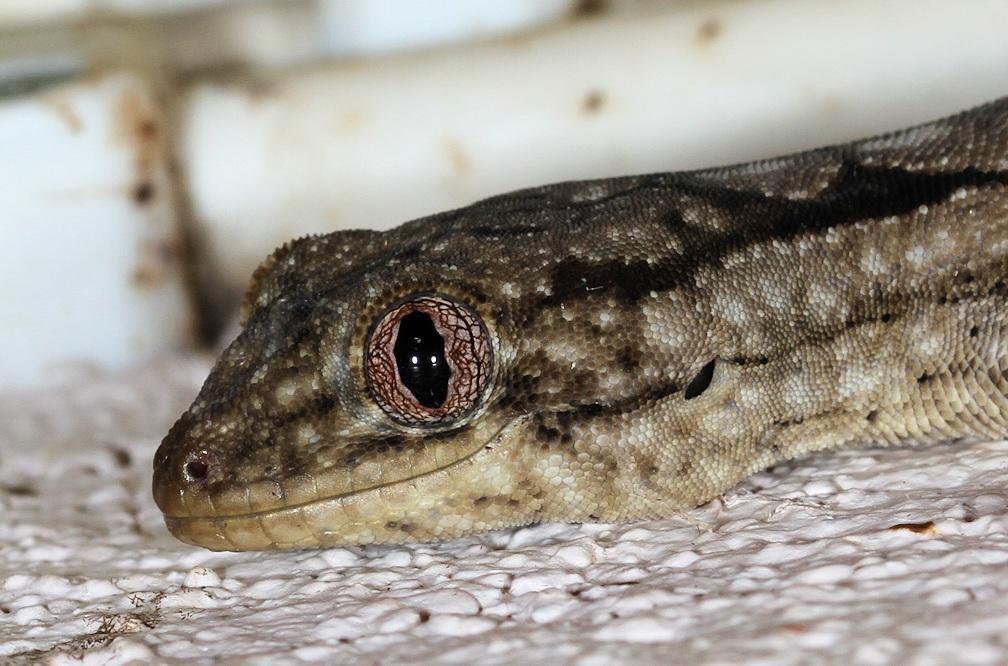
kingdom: Animalia
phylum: Chordata
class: Squamata
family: Gekkonidae
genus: Homopholis
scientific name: Homopholis walbergii
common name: Wahlberg’s velvet gecko
